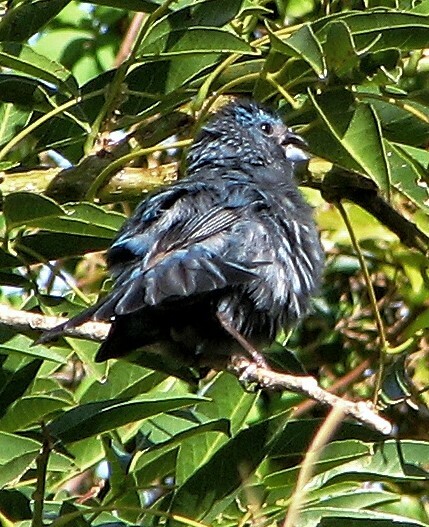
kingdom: Animalia
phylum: Chordata
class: Aves
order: Passeriformes
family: Cardinalidae
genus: Cyanoloxia
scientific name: Cyanoloxia brissonii
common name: Ultramarine grosbeak
